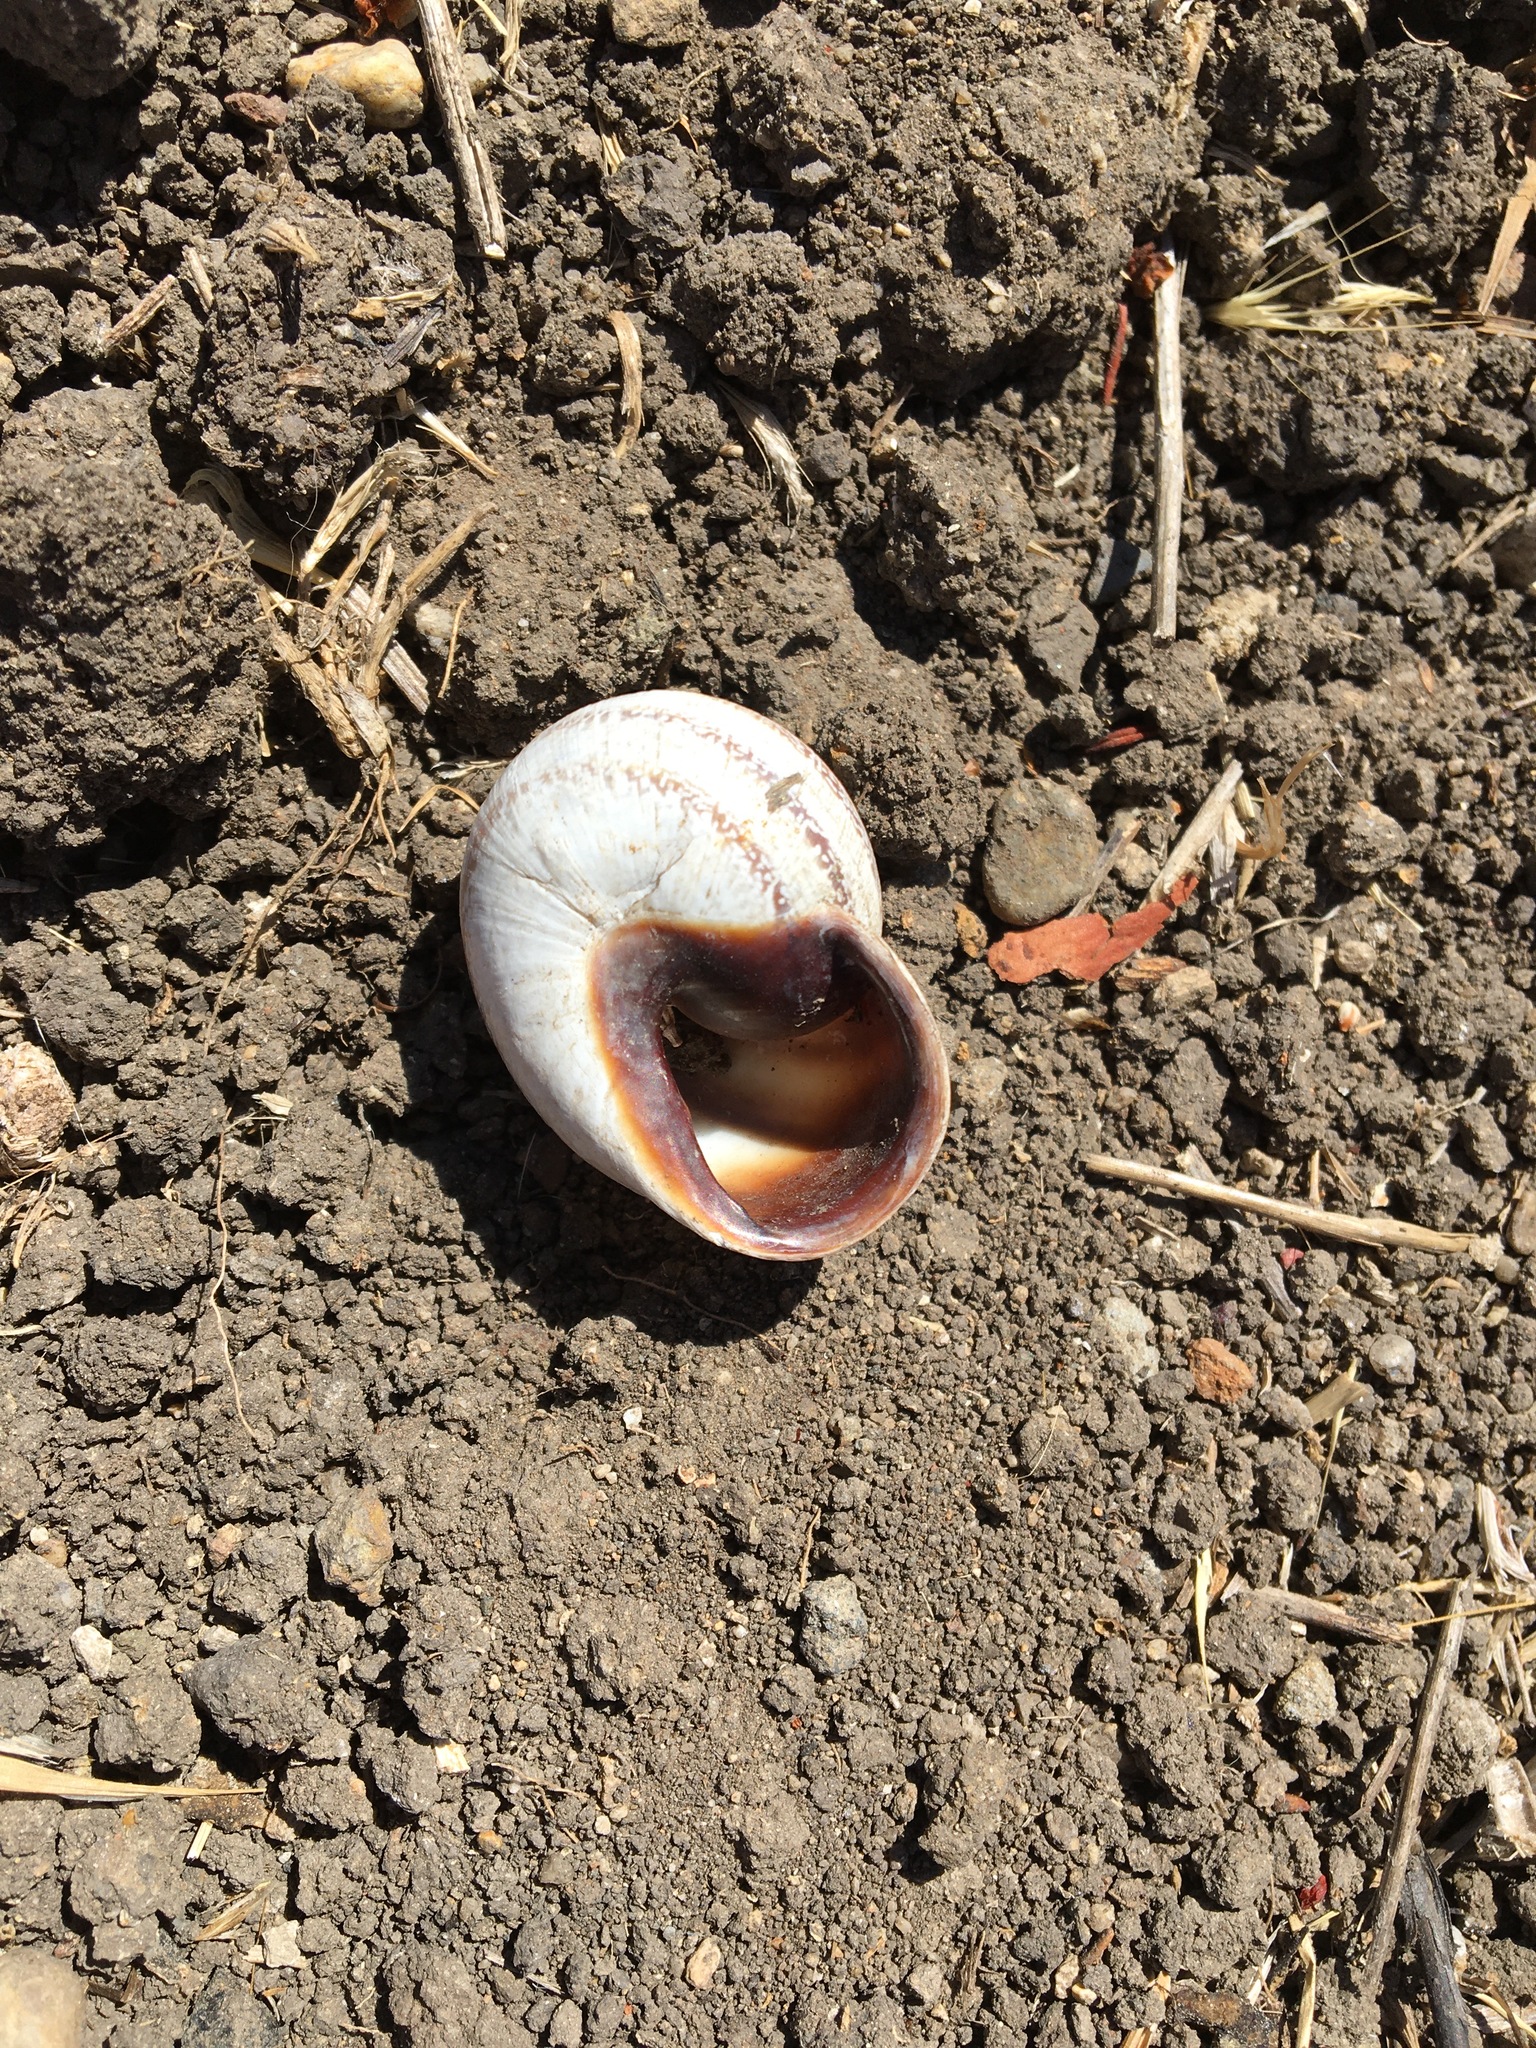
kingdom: Animalia
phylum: Mollusca
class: Gastropoda
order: Stylommatophora
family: Helicidae
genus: Otala
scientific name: Otala lactea
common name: Milk snail
